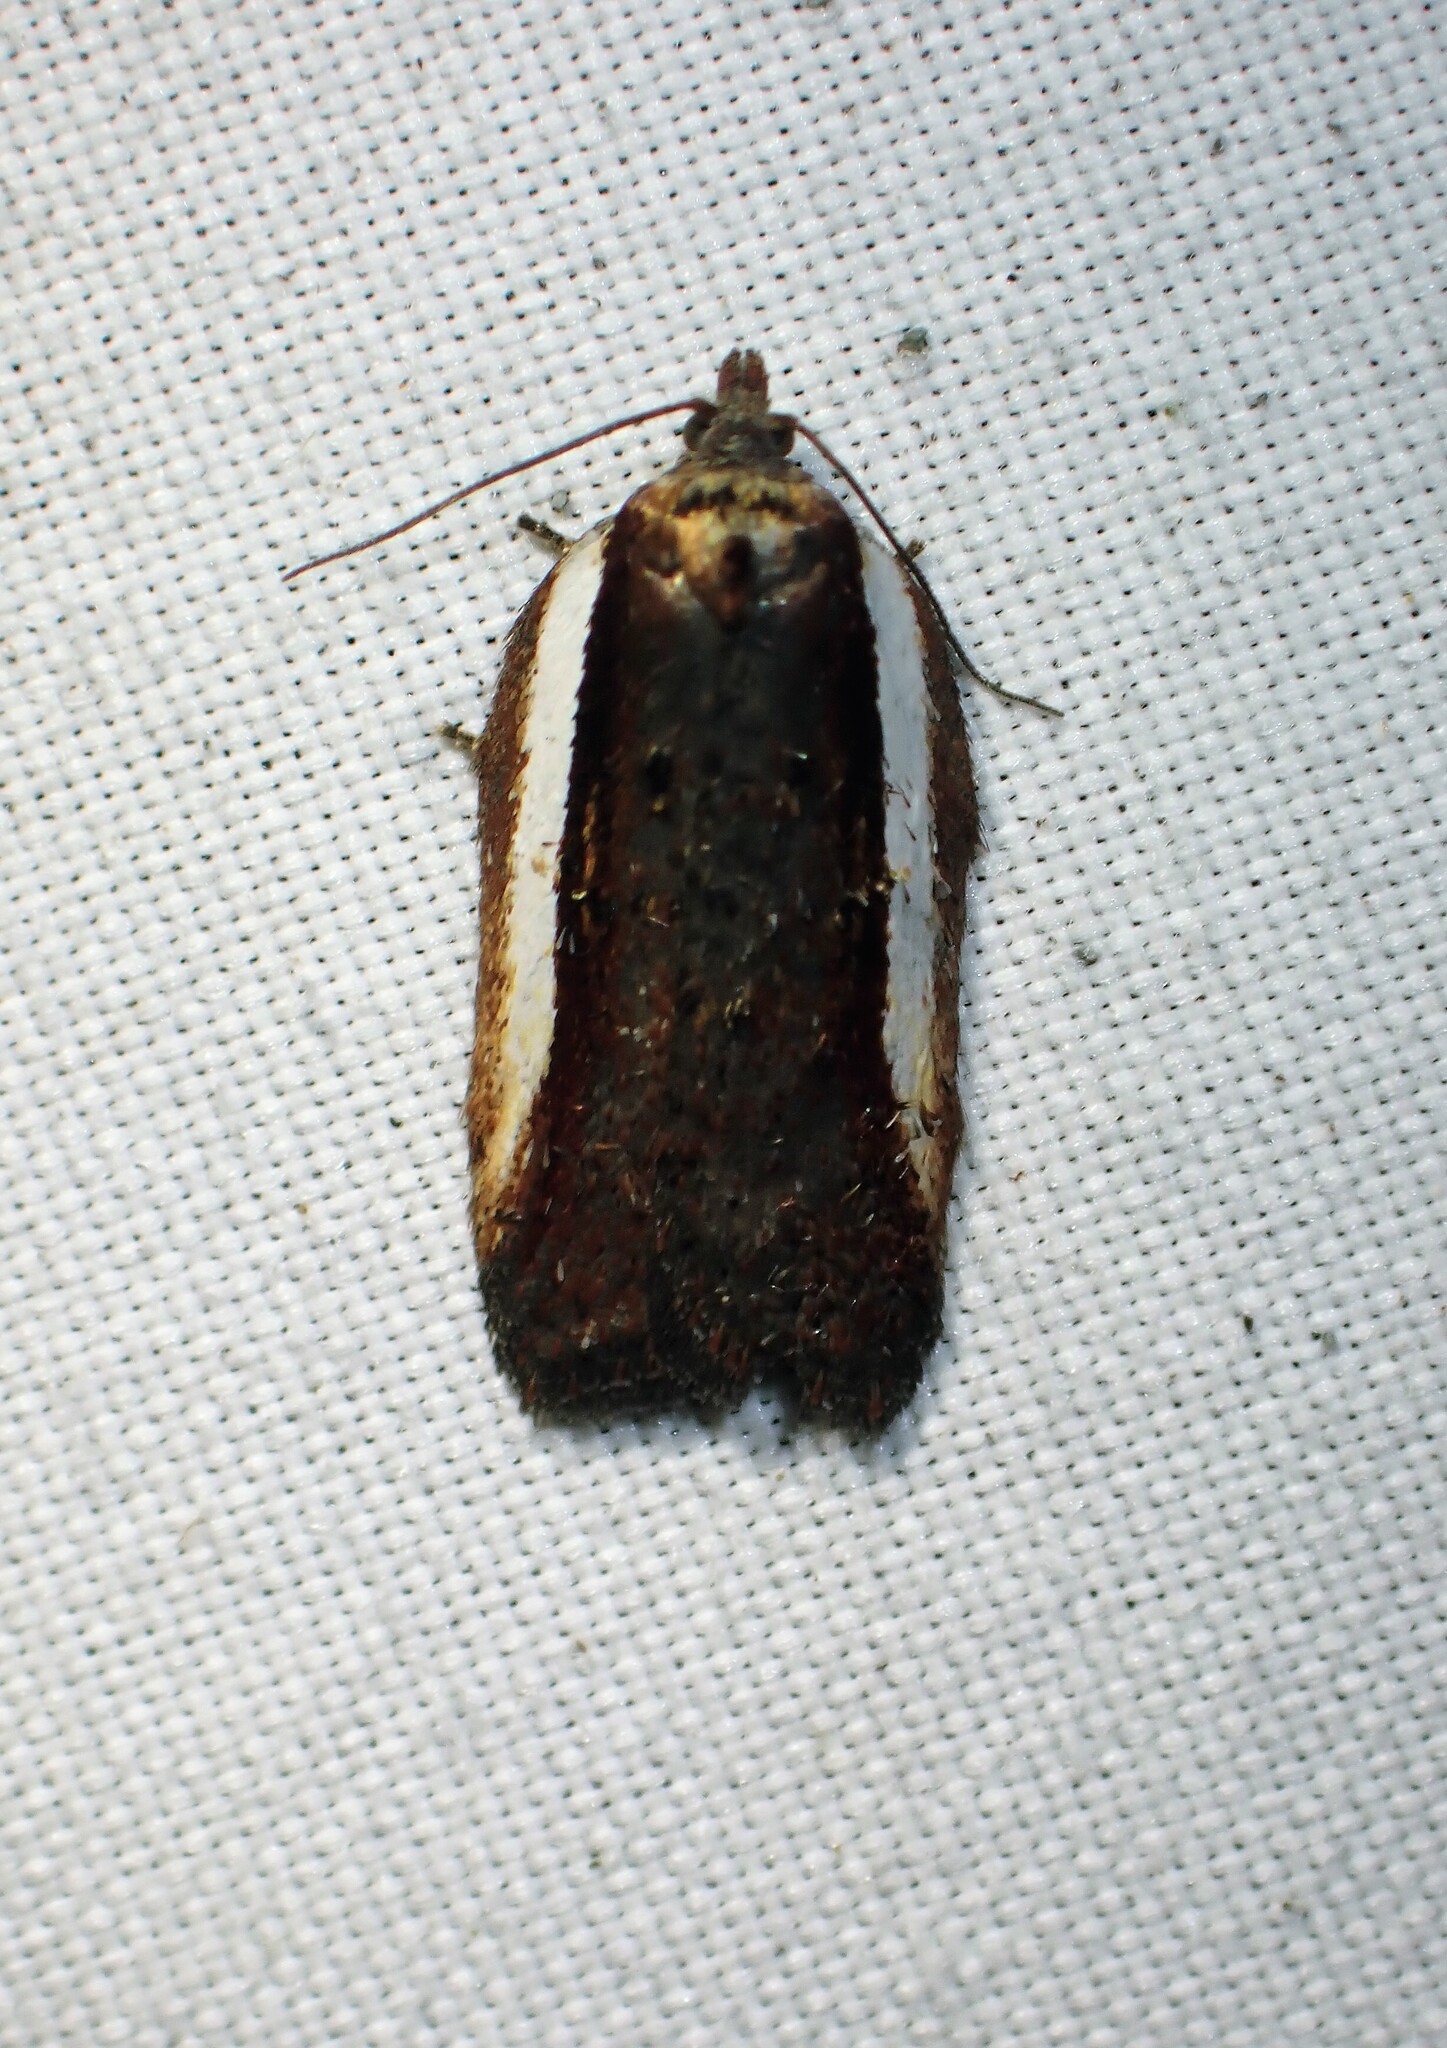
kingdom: Animalia
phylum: Arthropoda
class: Insecta
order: Lepidoptera
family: Tortricidae
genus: Acleris
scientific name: Acleris celiana
